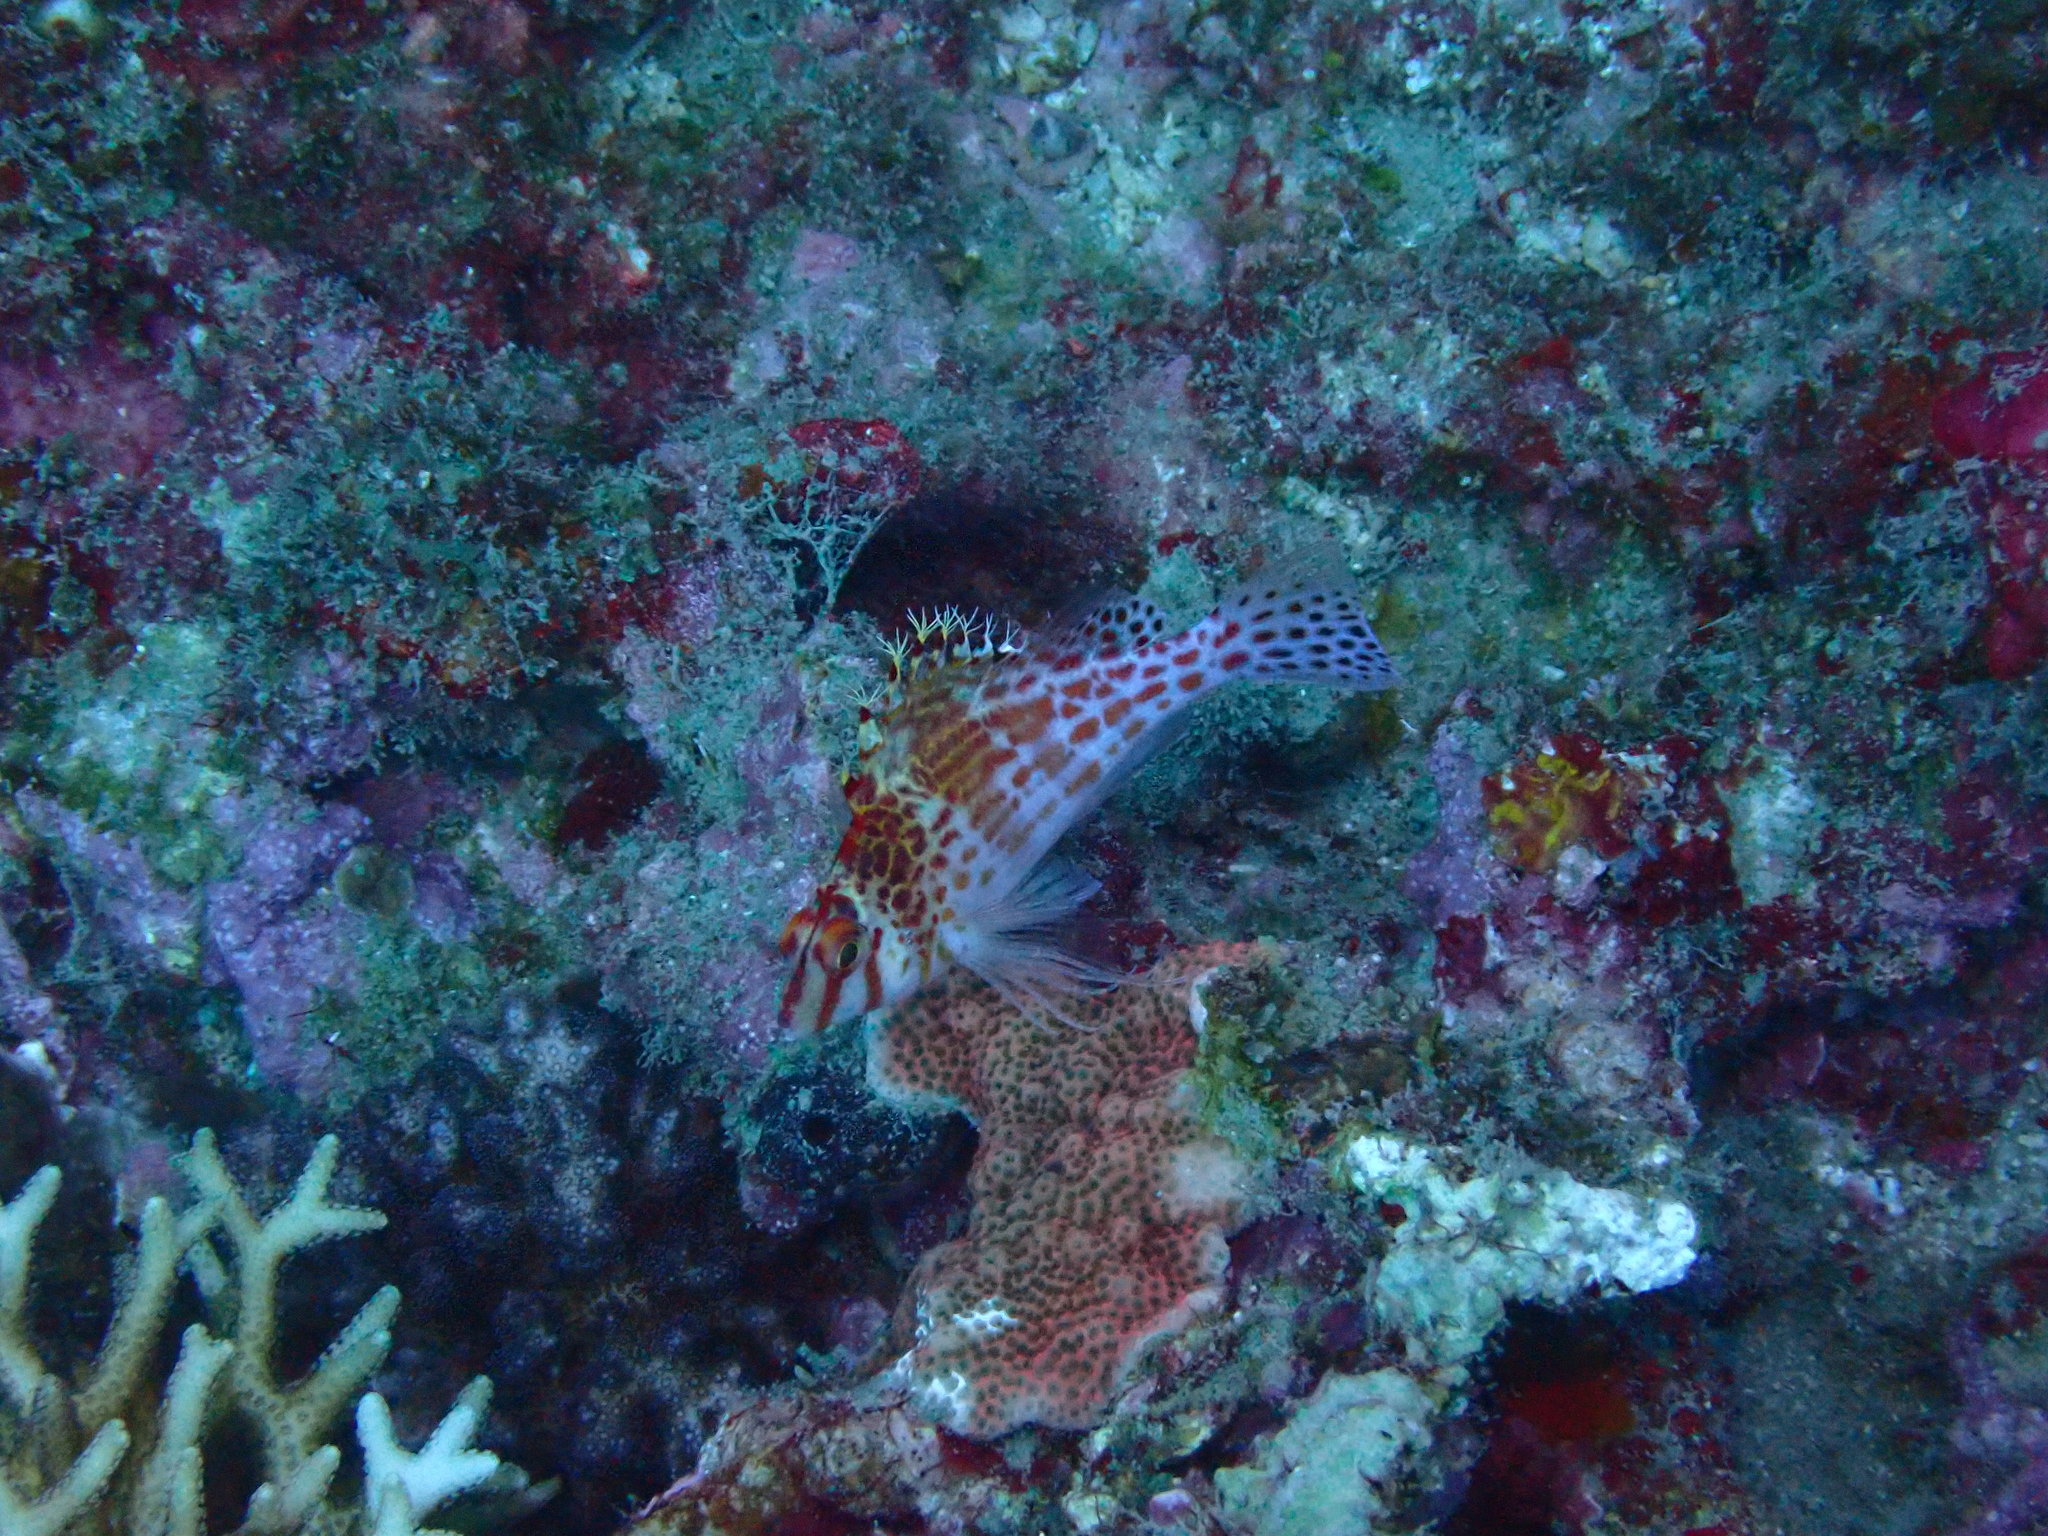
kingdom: Animalia
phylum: Chordata
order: Perciformes
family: Cirrhitidae
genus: Cirrhitichthys
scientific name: Cirrhitichthys falco
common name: Coral hawkfish
